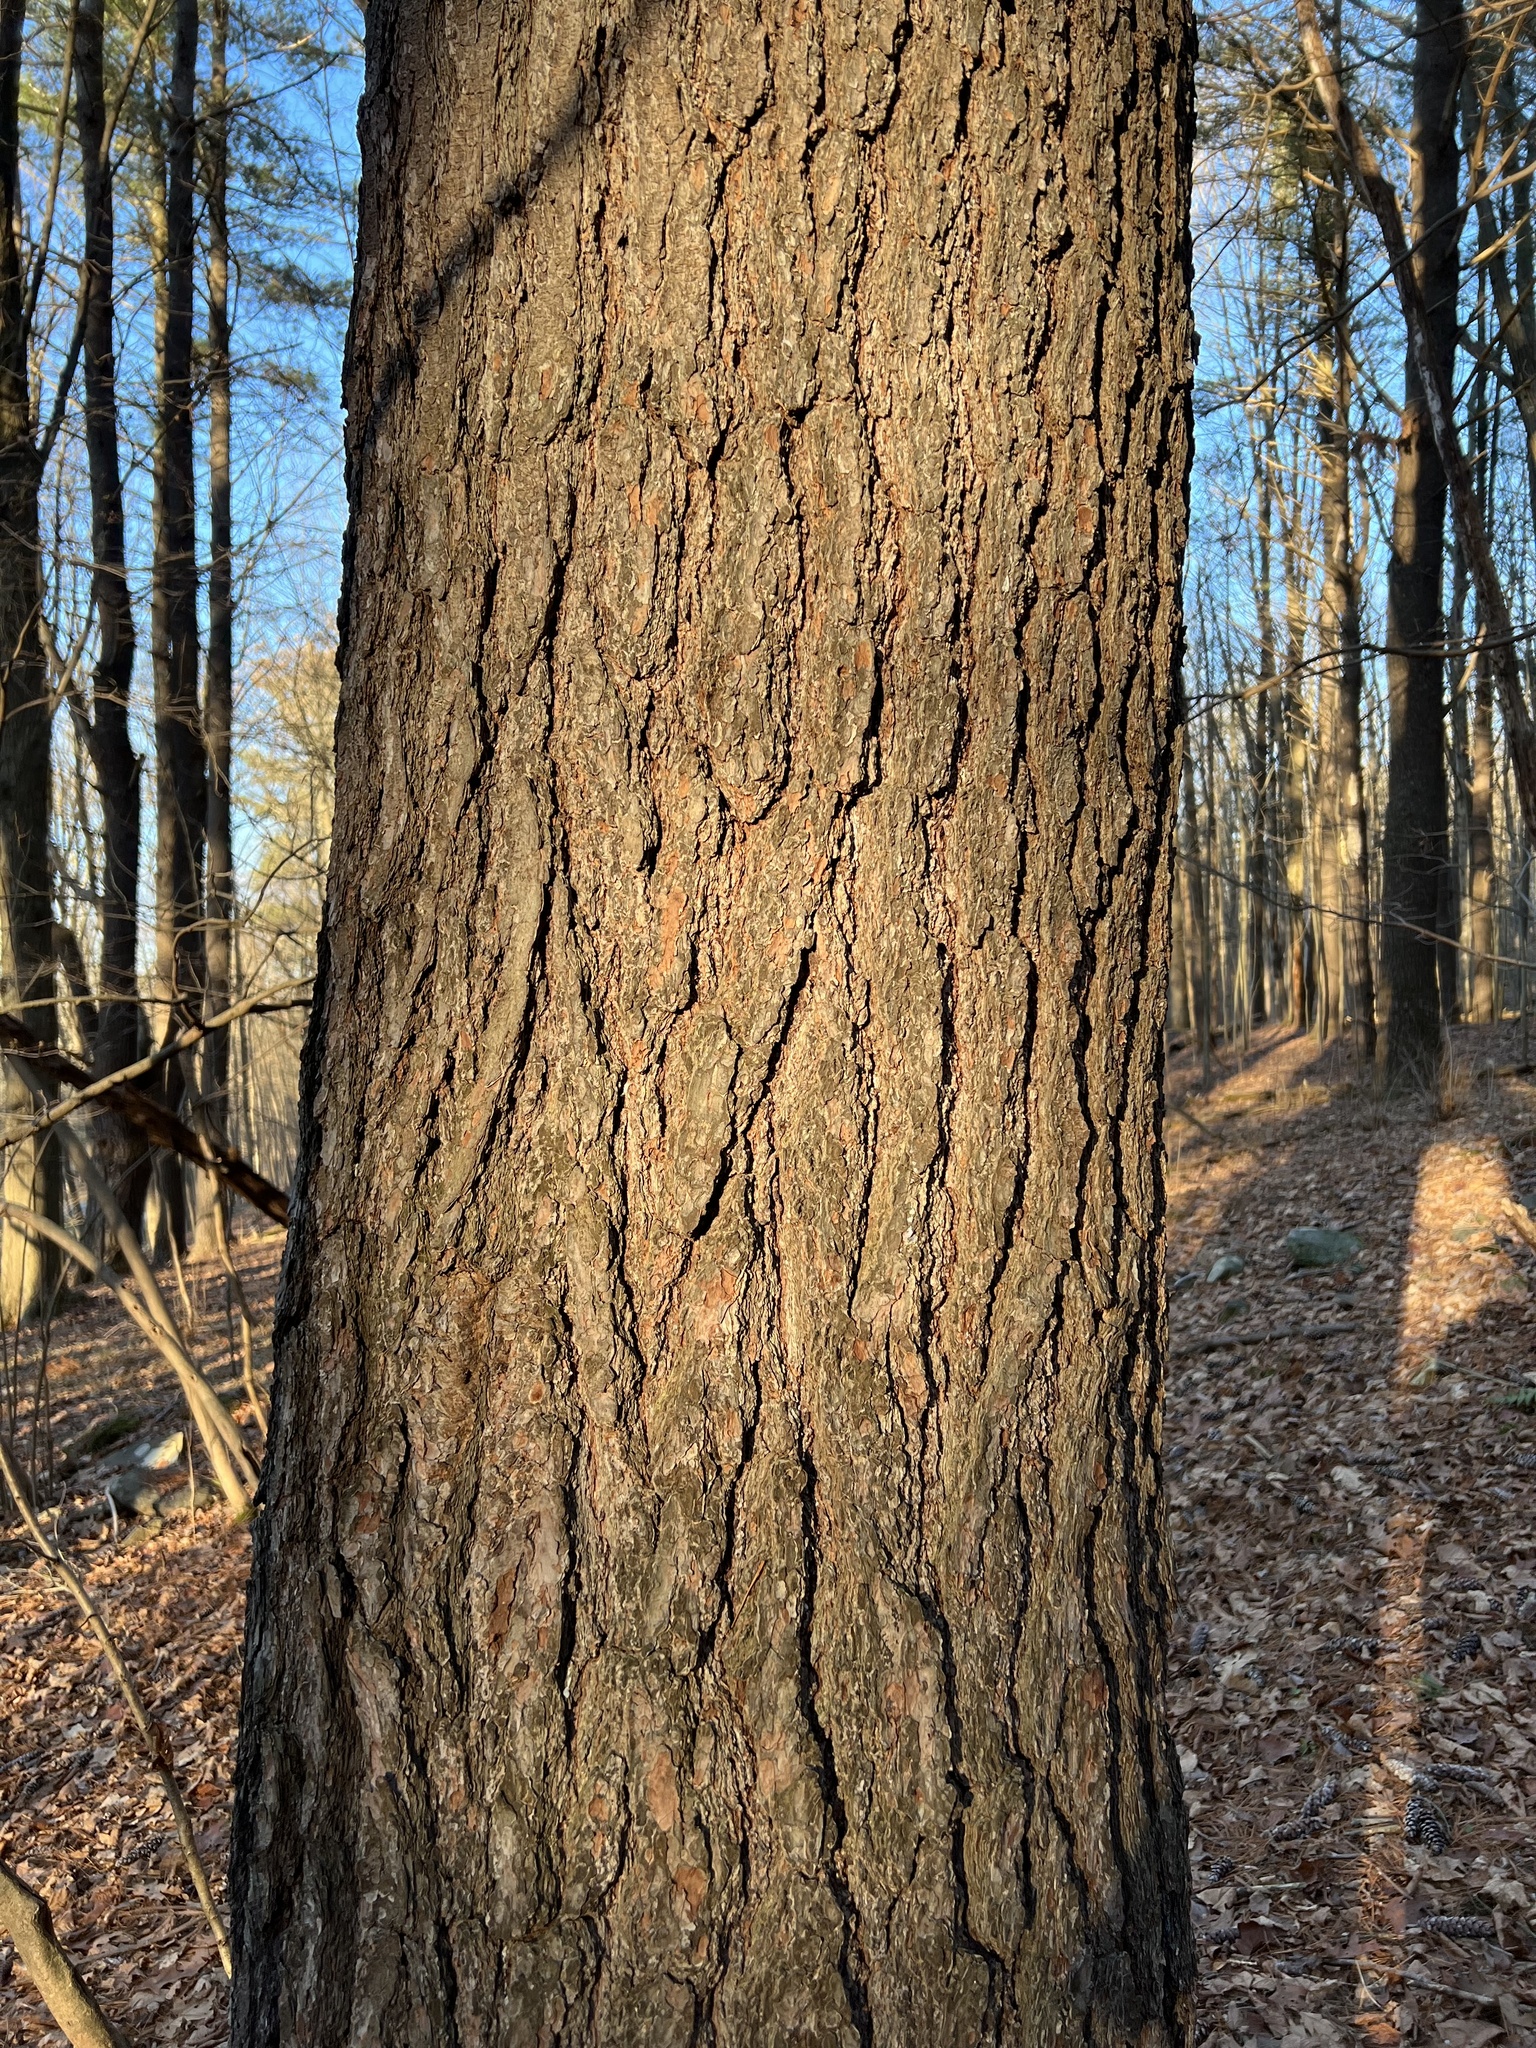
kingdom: Plantae
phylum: Tracheophyta
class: Pinopsida
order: Pinales
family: Pinaceae
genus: Pinus
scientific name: Pinus strobus
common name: Weymouth pine
